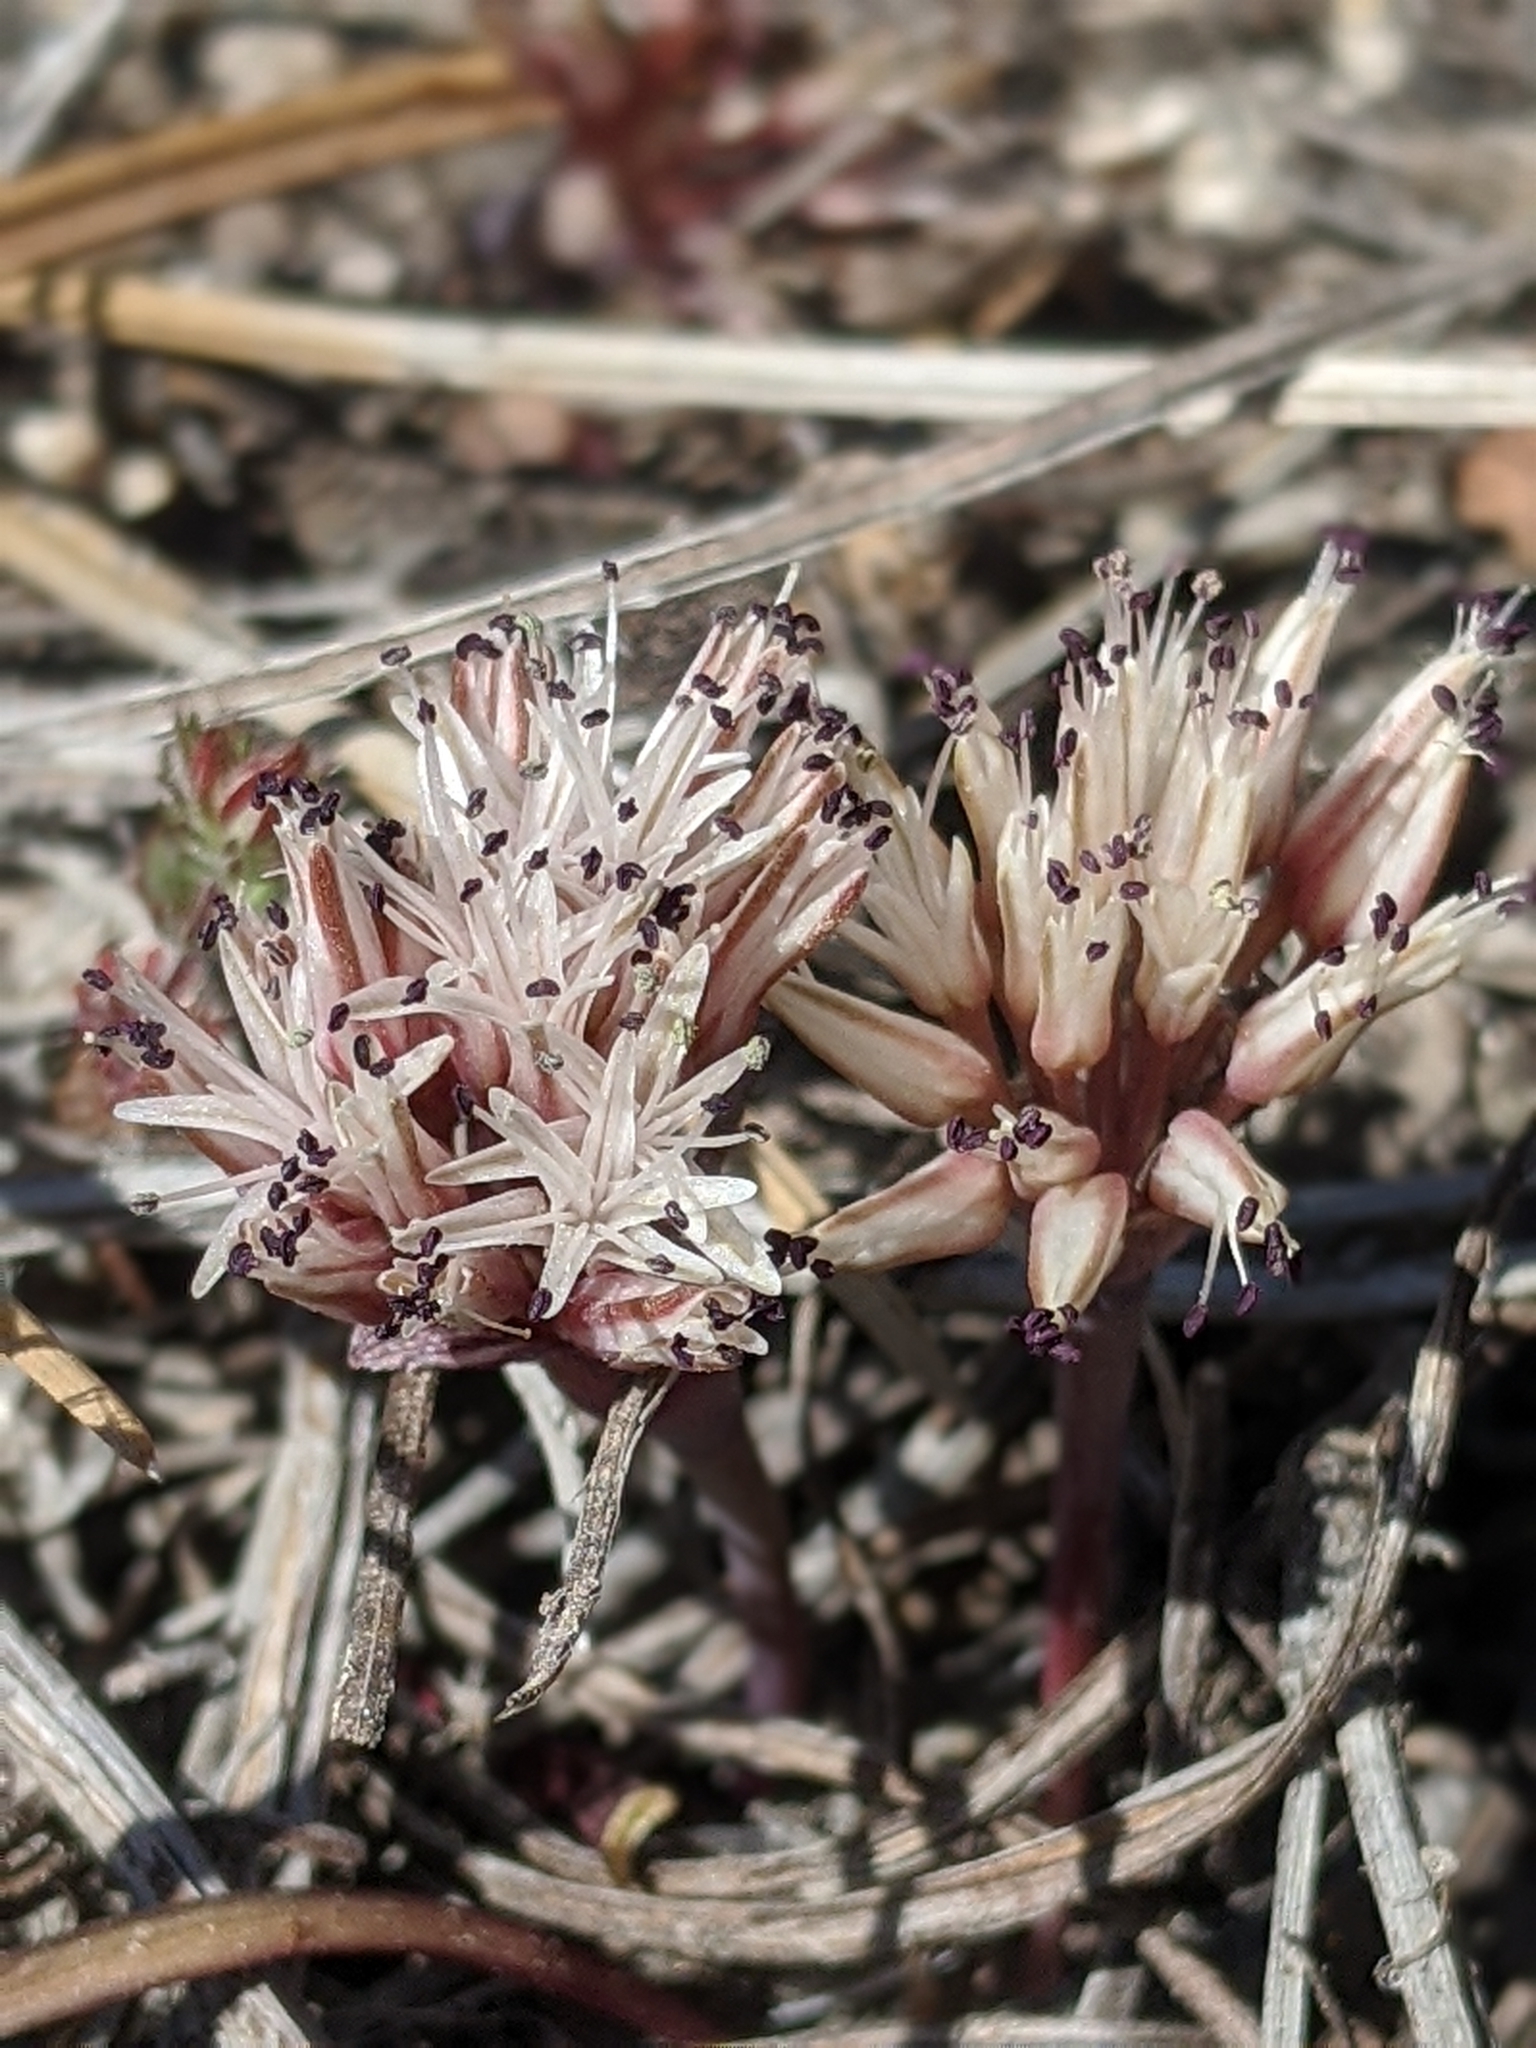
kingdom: Plantae
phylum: Tracheophyta
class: Liliopsida
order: Asparagales
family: Amaryllidaceae
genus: Allium
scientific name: Allium burlewii
